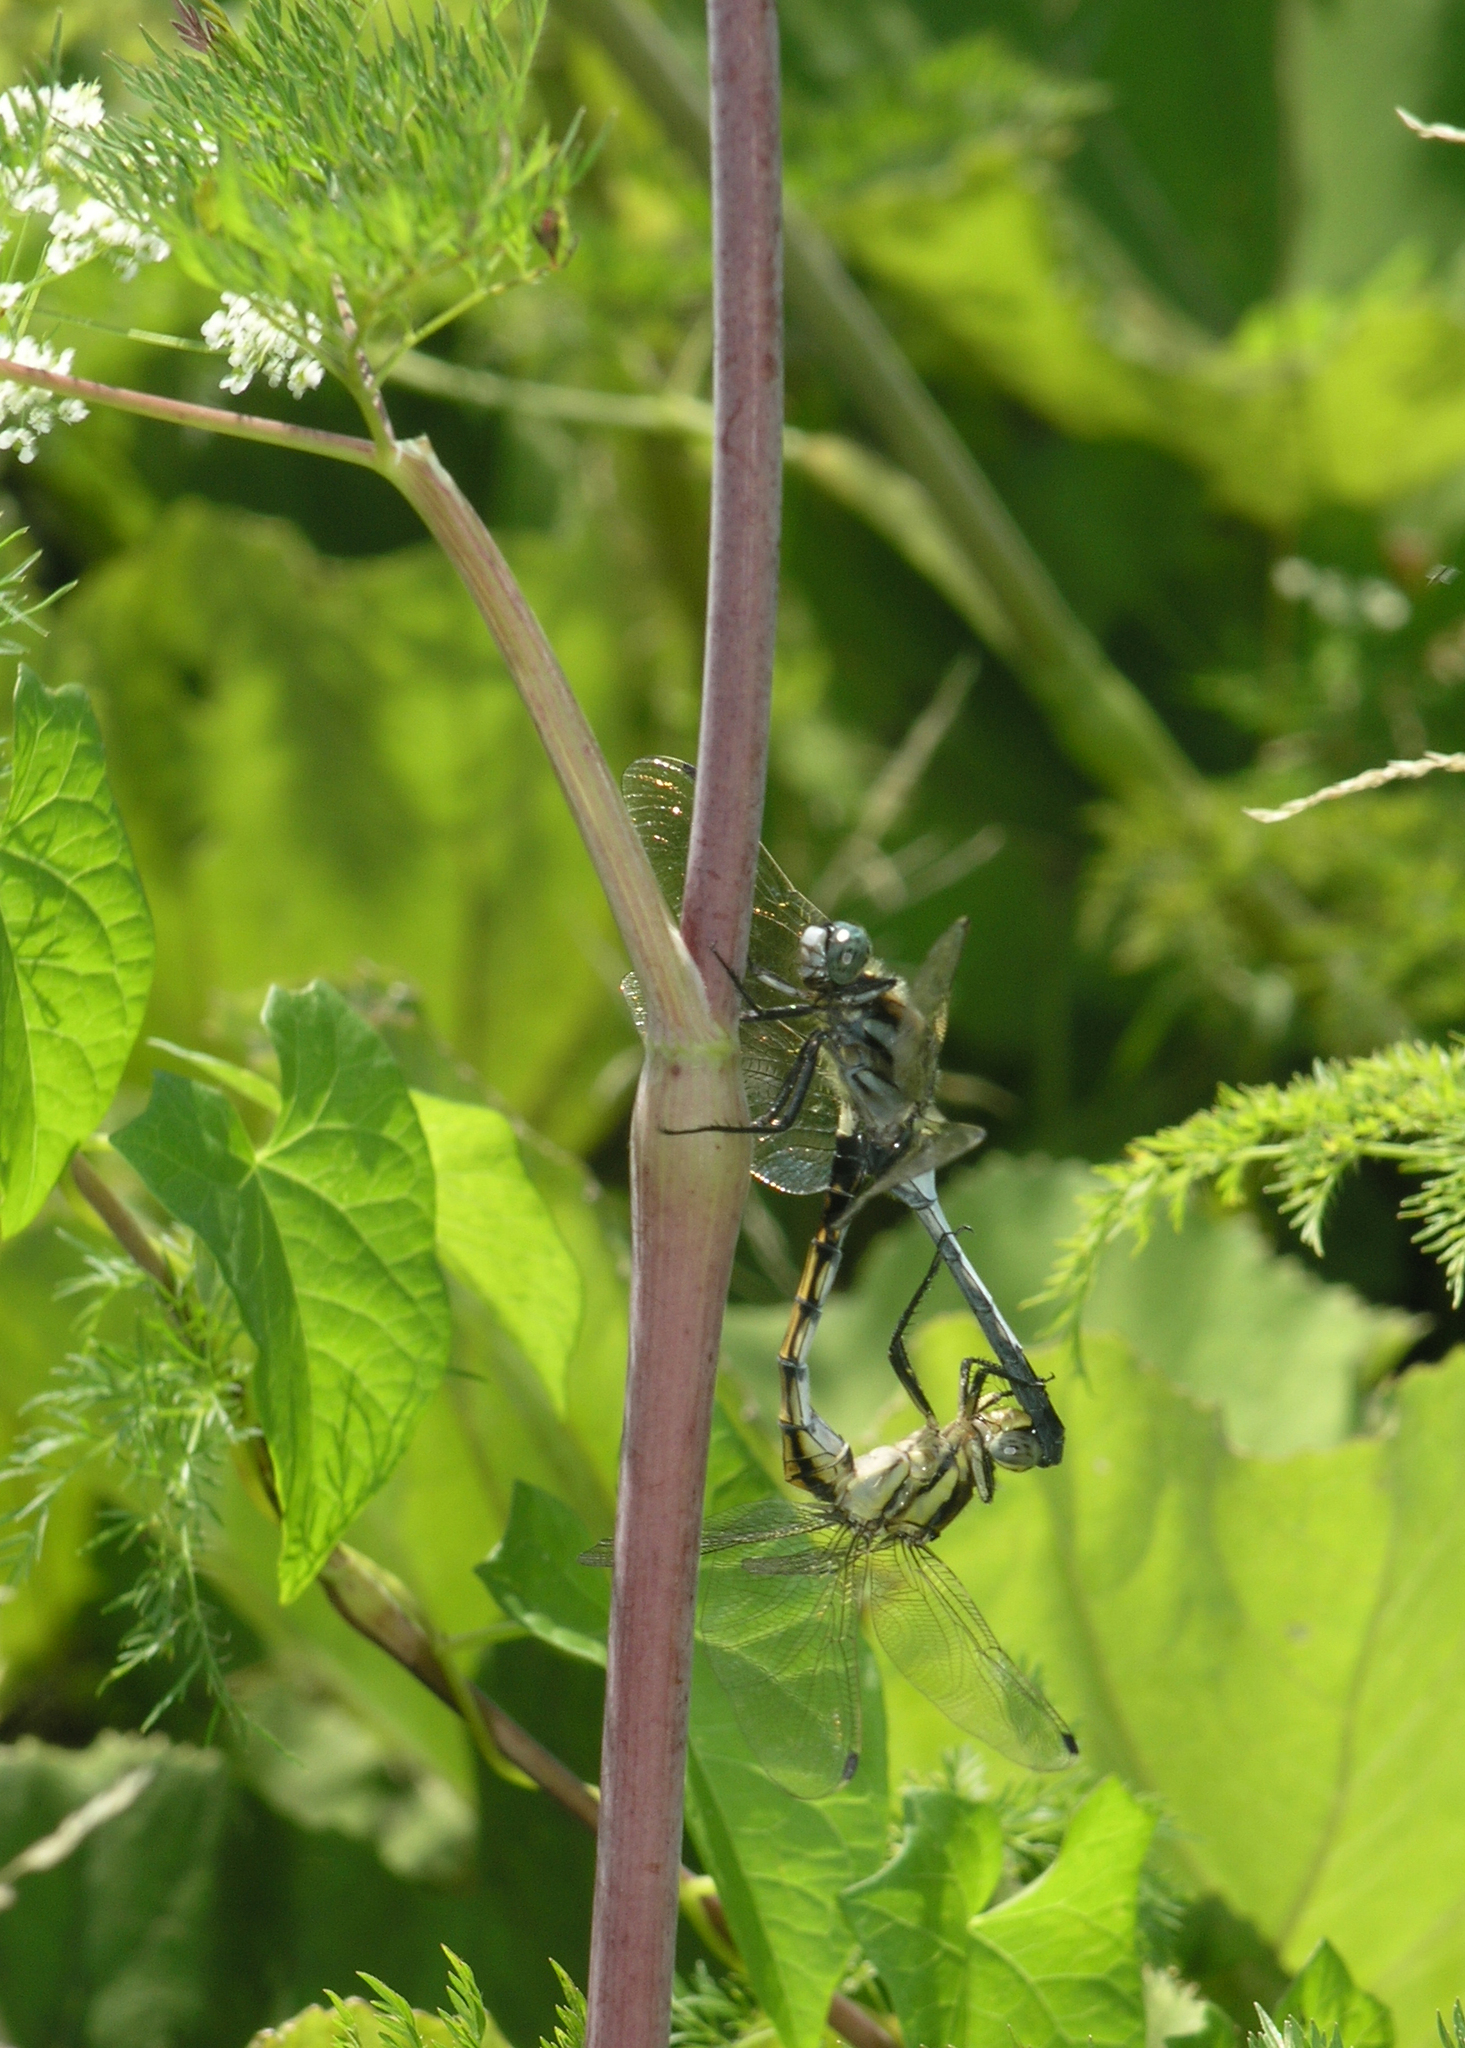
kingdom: Animalia
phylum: Arthropoda
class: Insecta
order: Odonata
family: Libellulidae
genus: Orthetrum
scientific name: Orthetrum albistylum
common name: White-tailed skimmer
